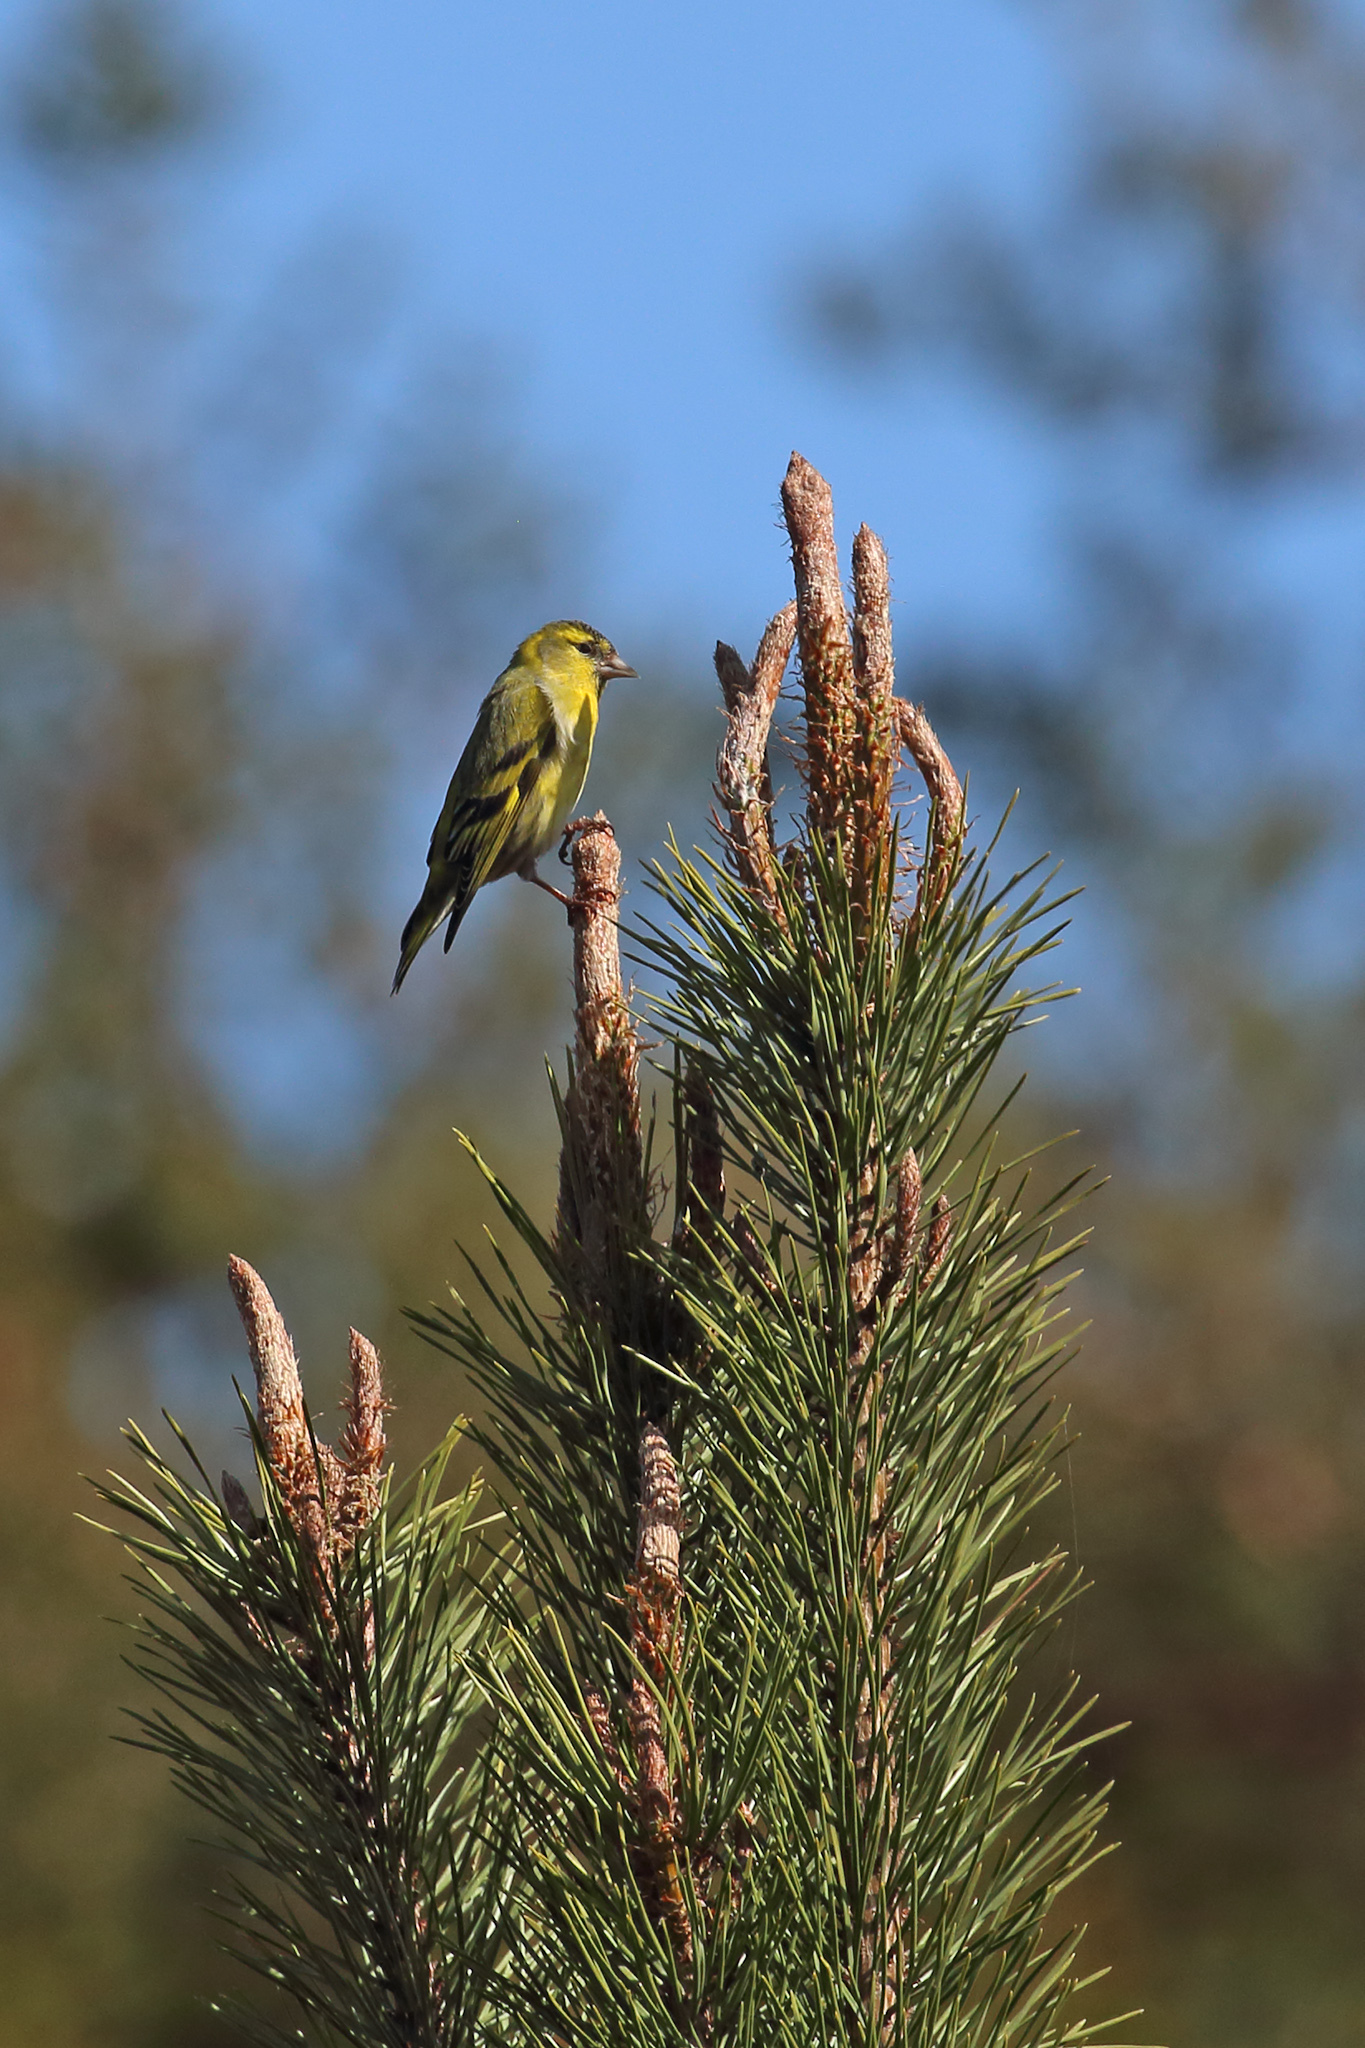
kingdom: Animalia
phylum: Chordata
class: Aves
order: Passeriformes
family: Fringillidae
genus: Spinus
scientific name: Spinus spinus
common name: Eurasian siskin
